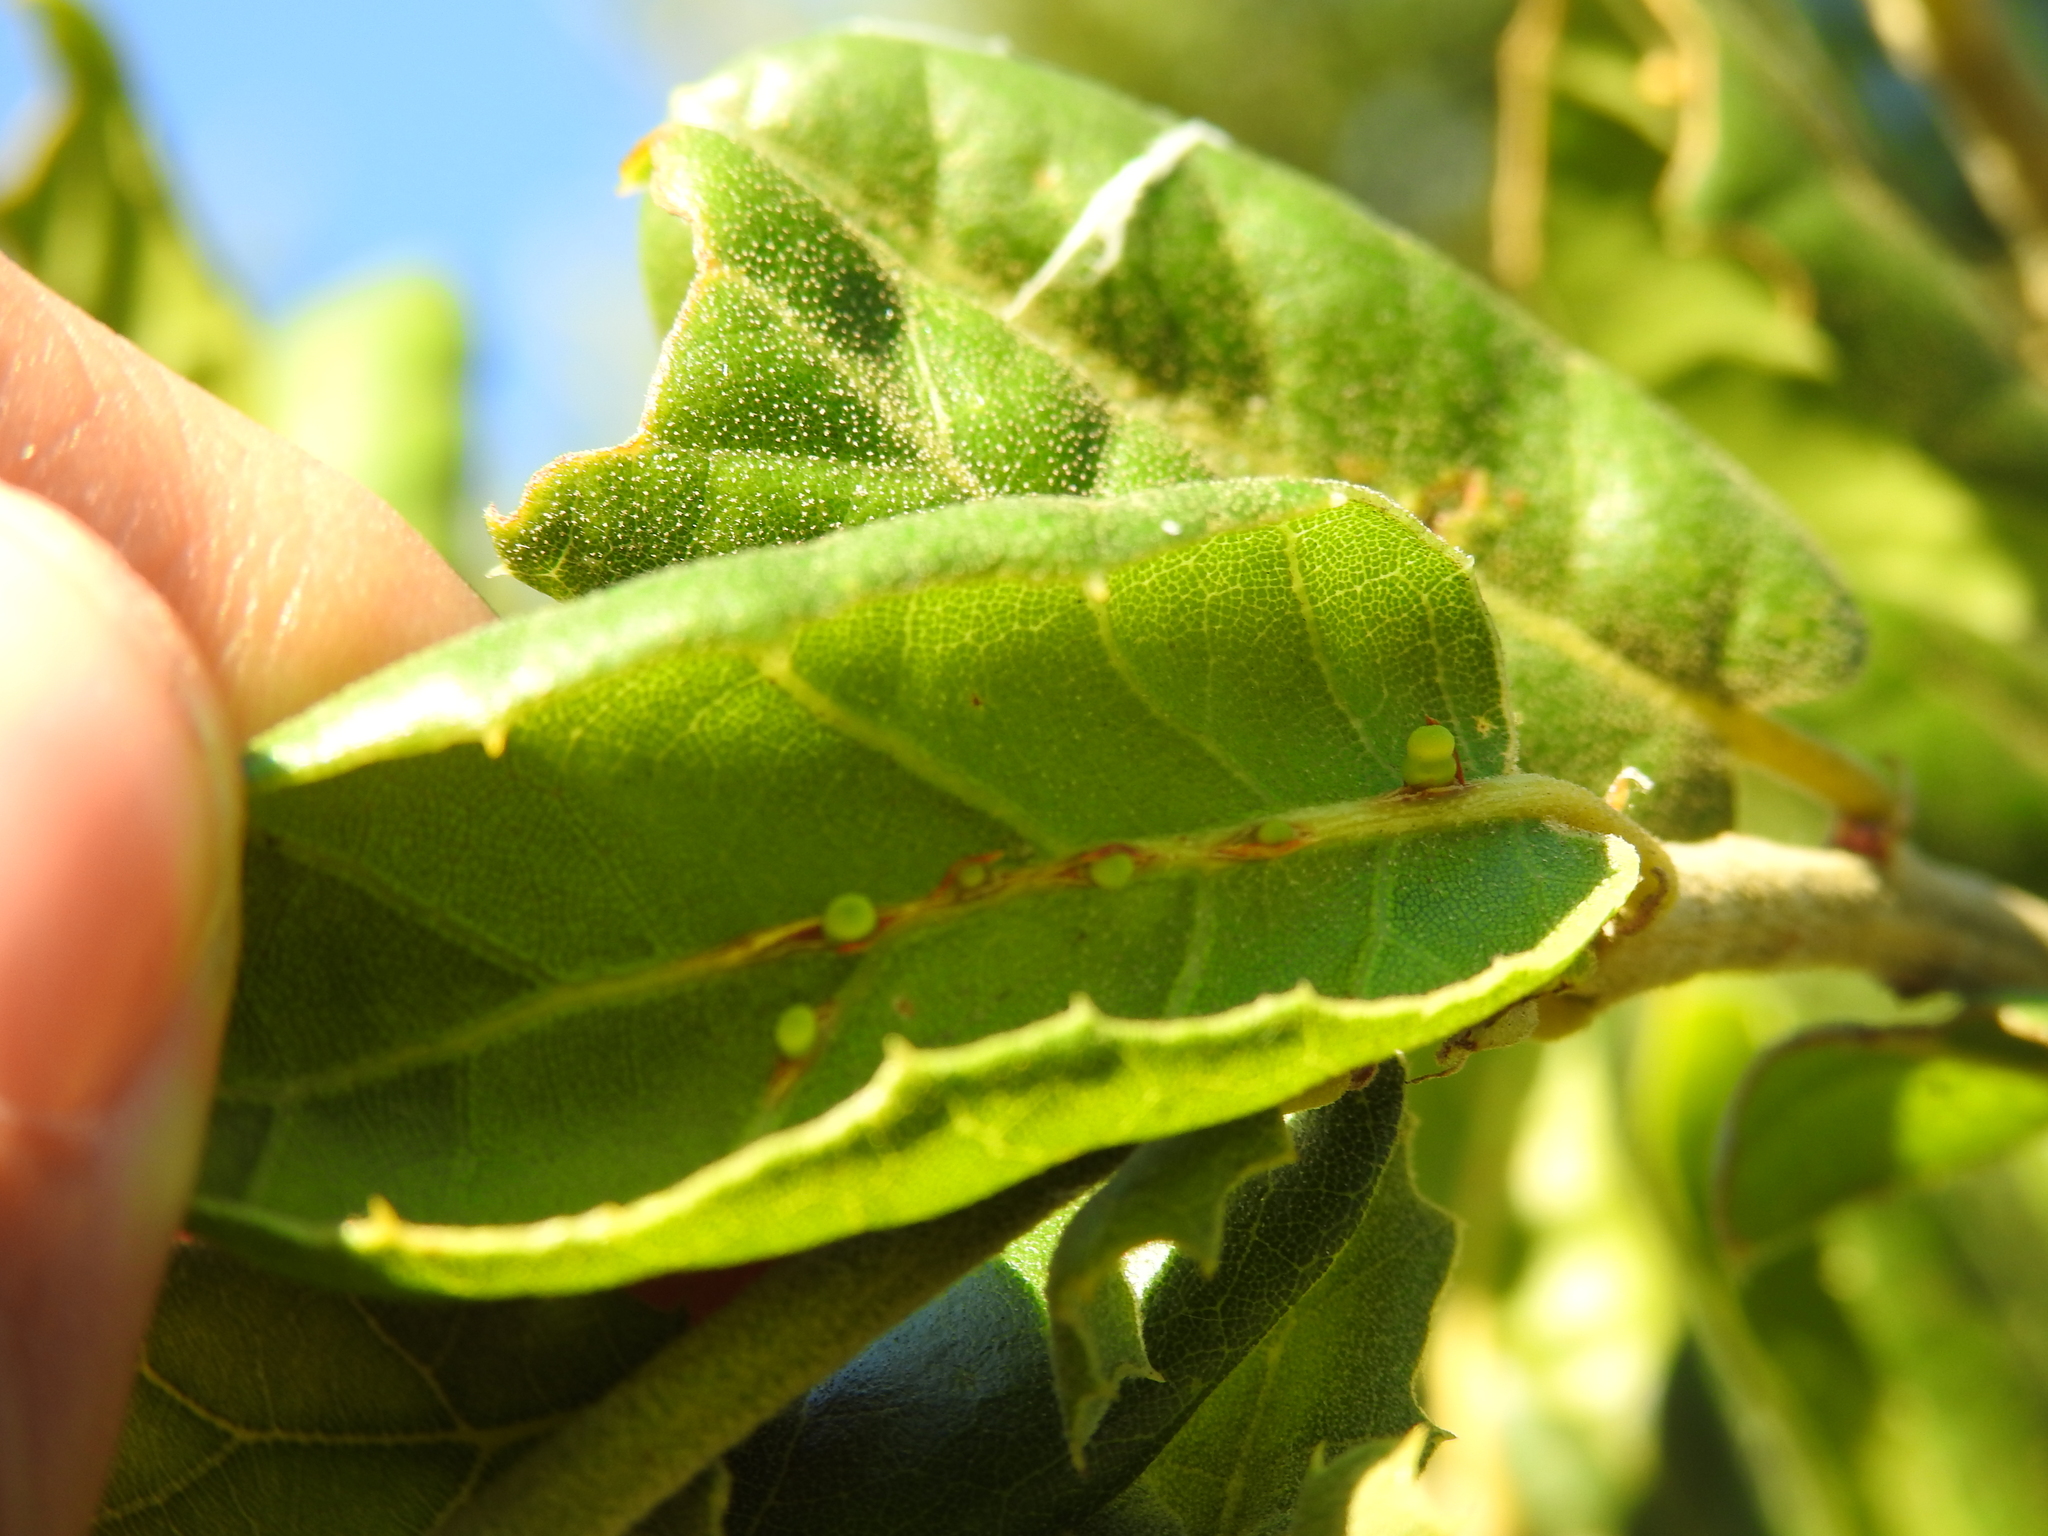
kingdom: Animalia
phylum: Arthropoda
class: Insecta
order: Hymenoptera
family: Cynipidae
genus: Callirhytis
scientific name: Callirhytis
